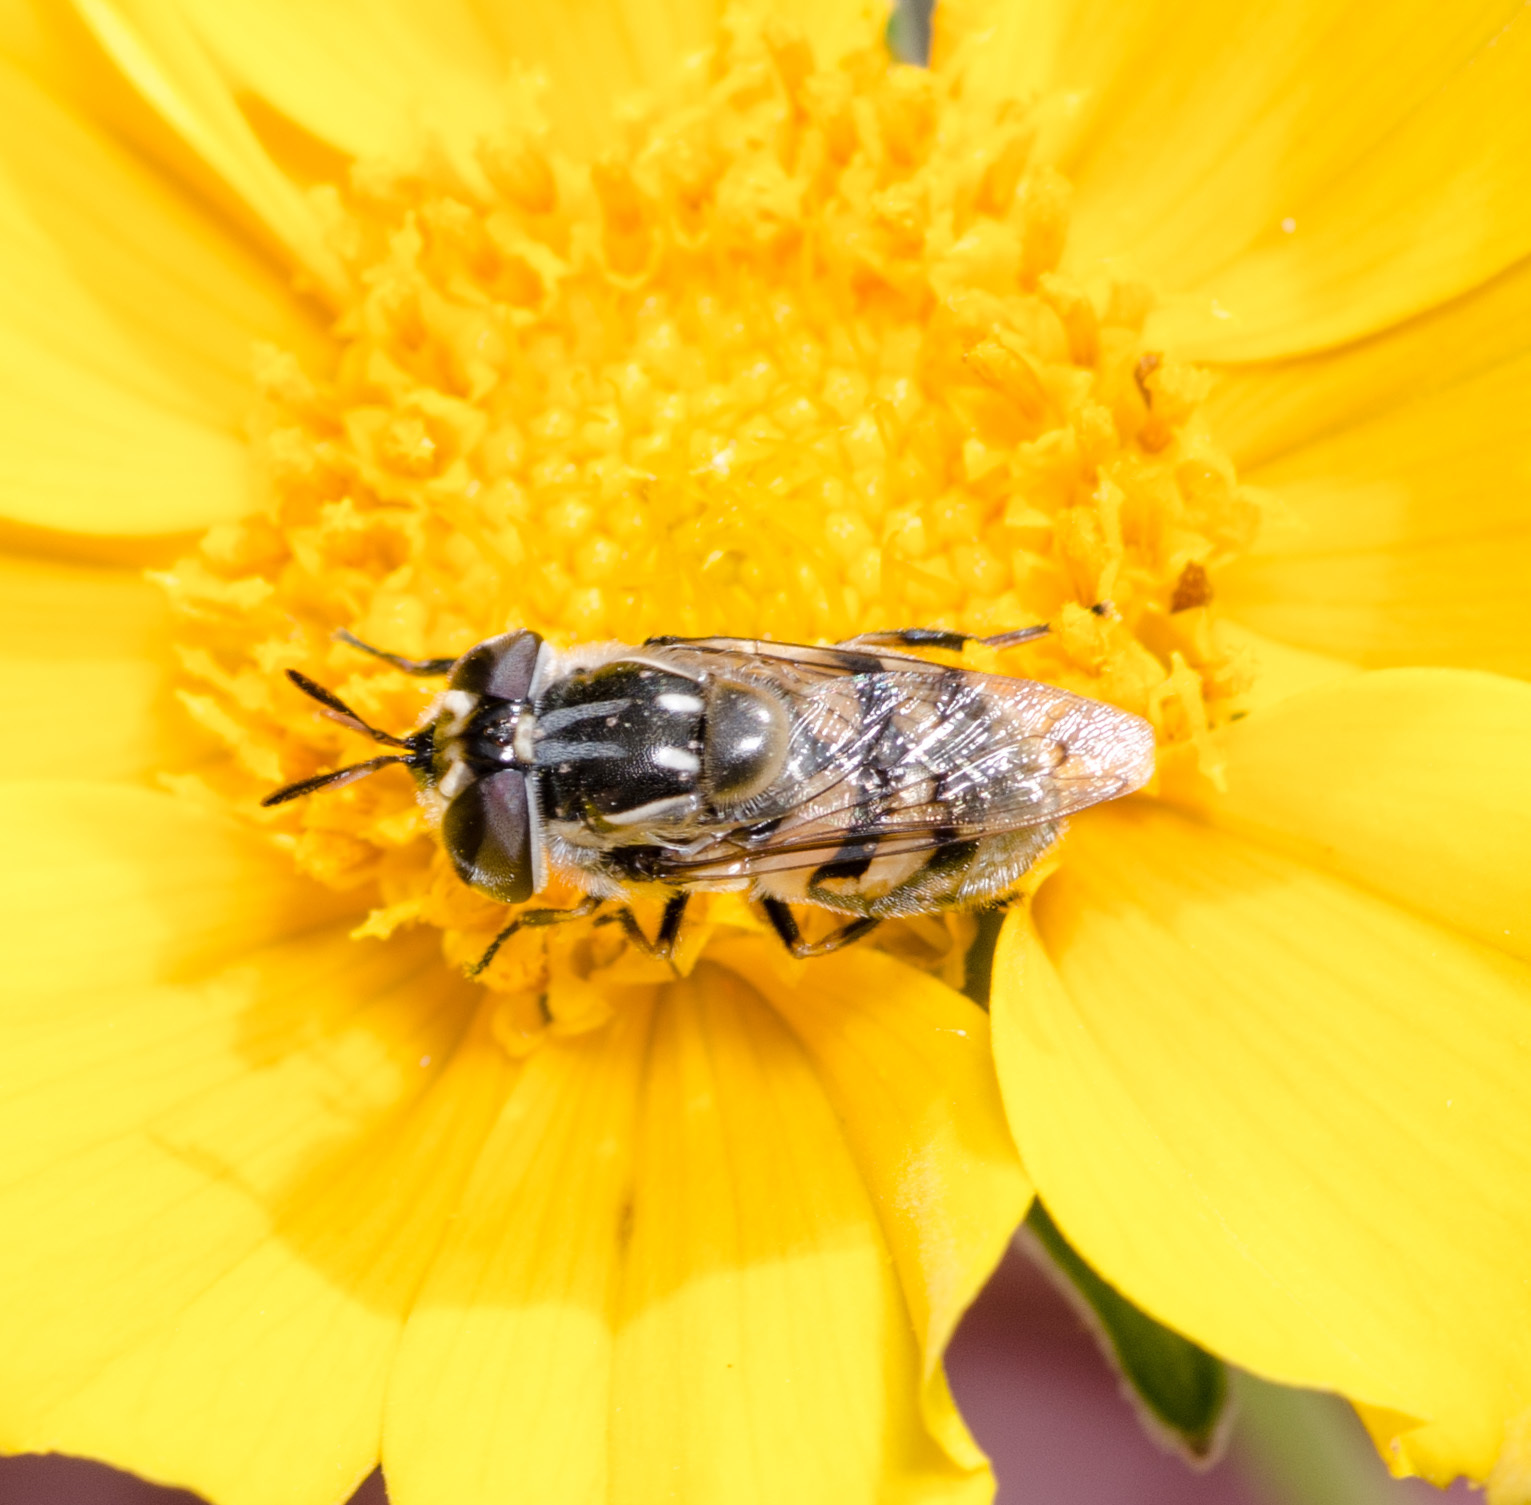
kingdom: Animalia
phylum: Arthropoda
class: Insecta
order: Diptera
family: Syrphidae
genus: Copestylum
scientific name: Copestylum marginatum
